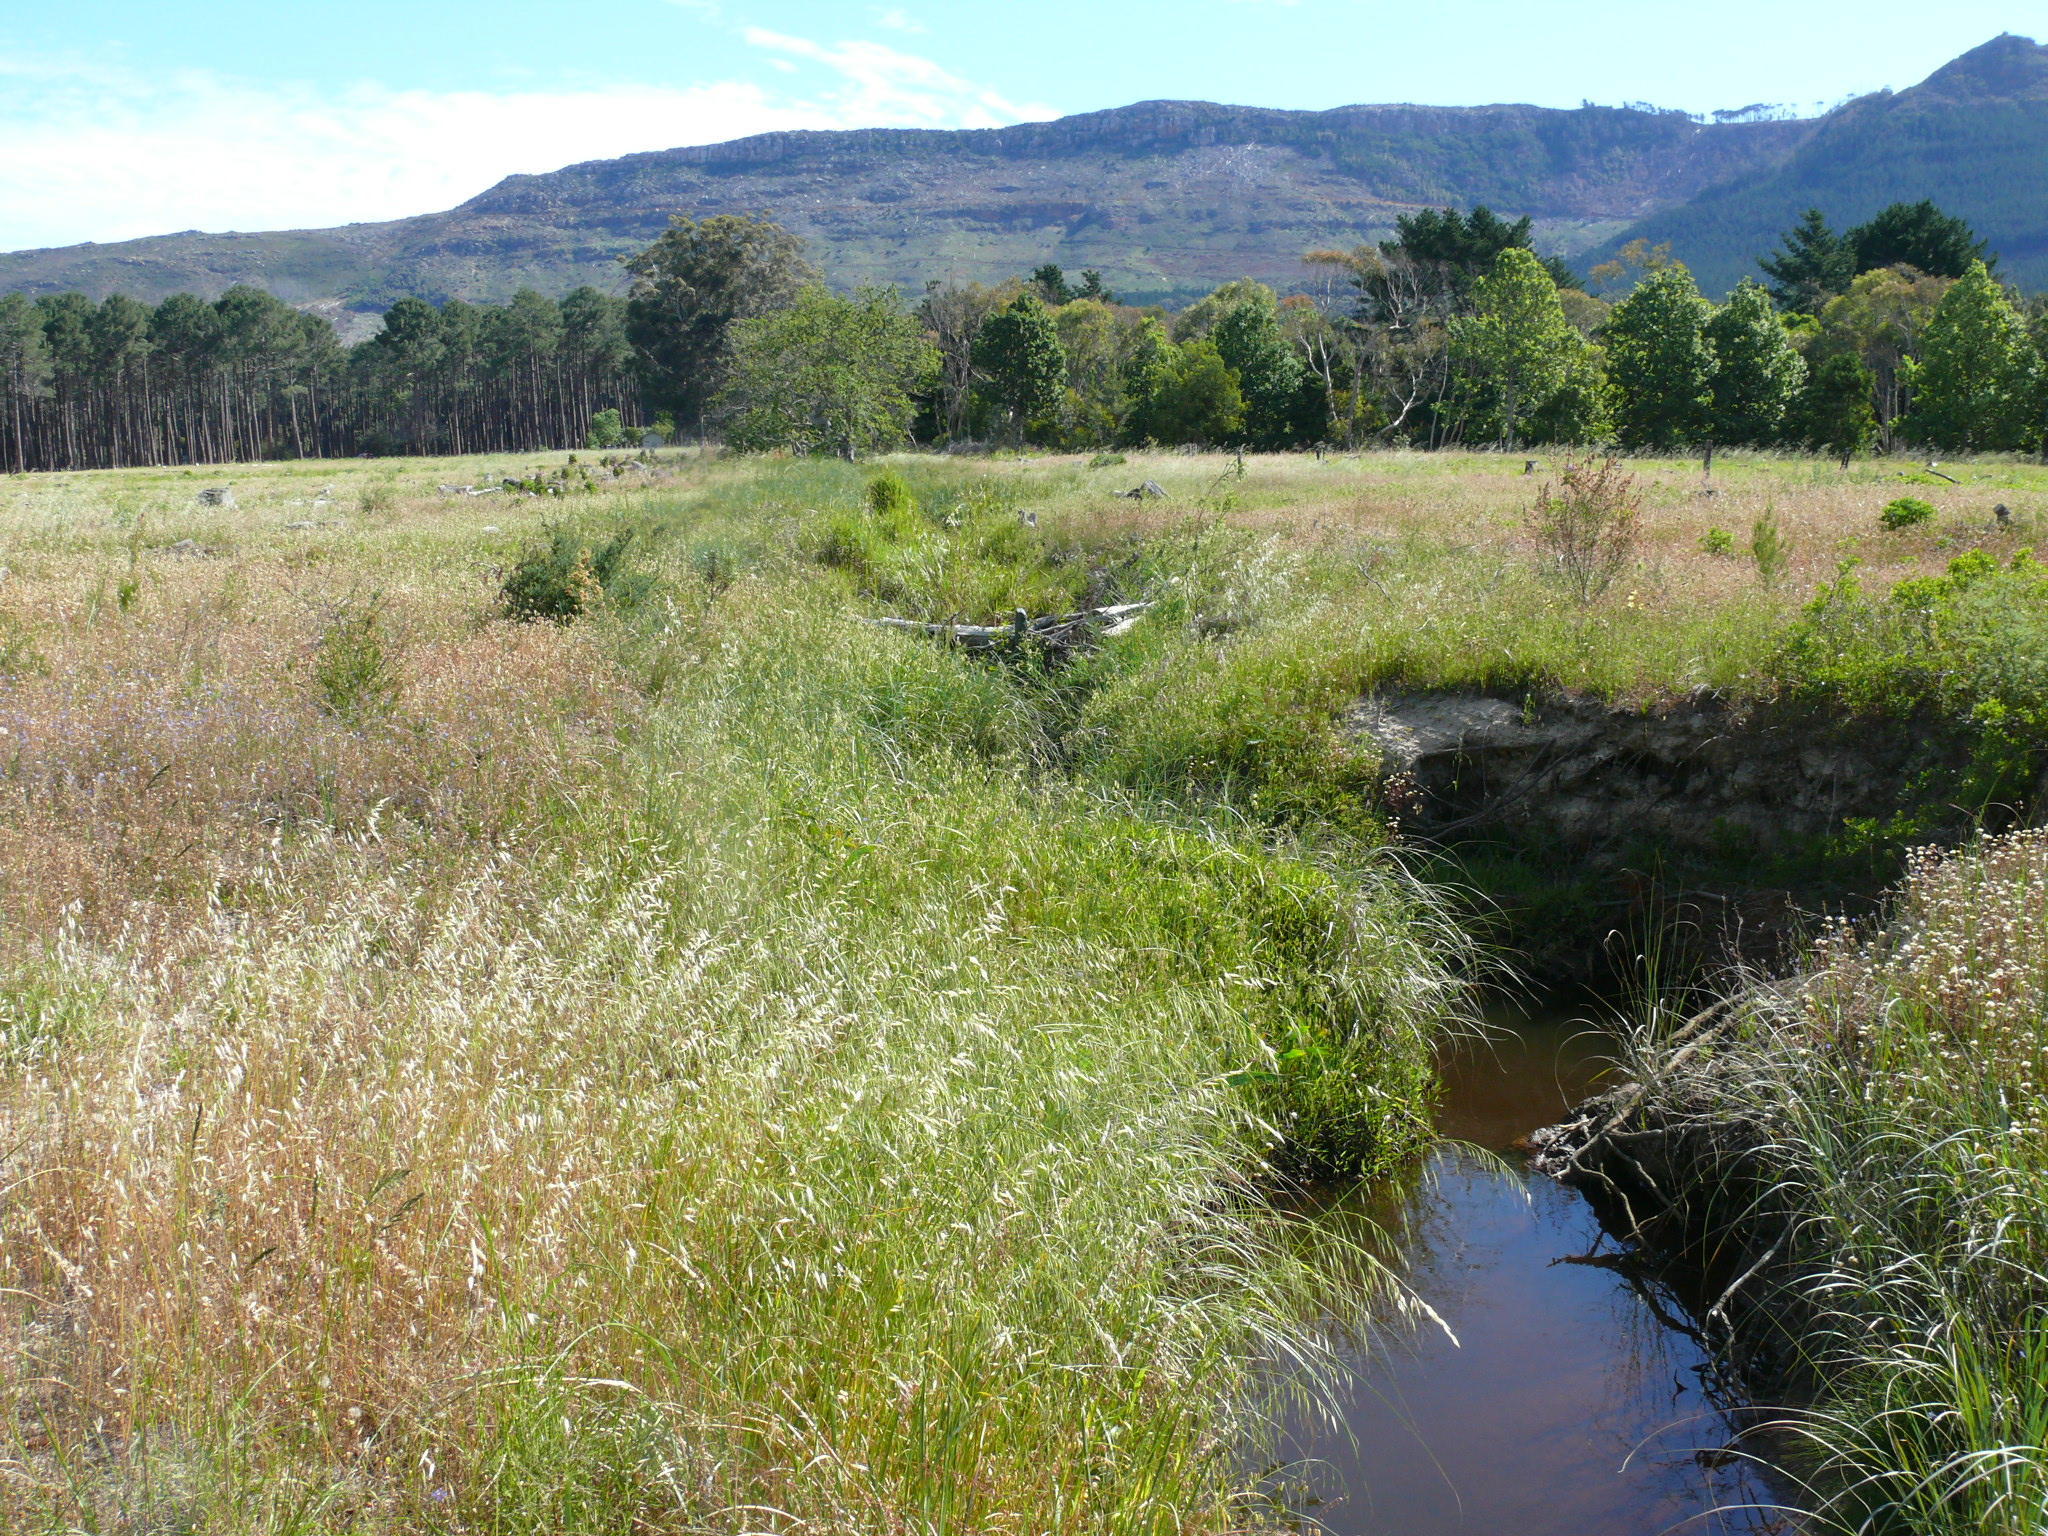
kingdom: Plantae
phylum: Tracheophyta
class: Liliopsida
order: Poales
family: Poaceae
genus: Avena
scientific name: Avena fatua
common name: Wild oat
